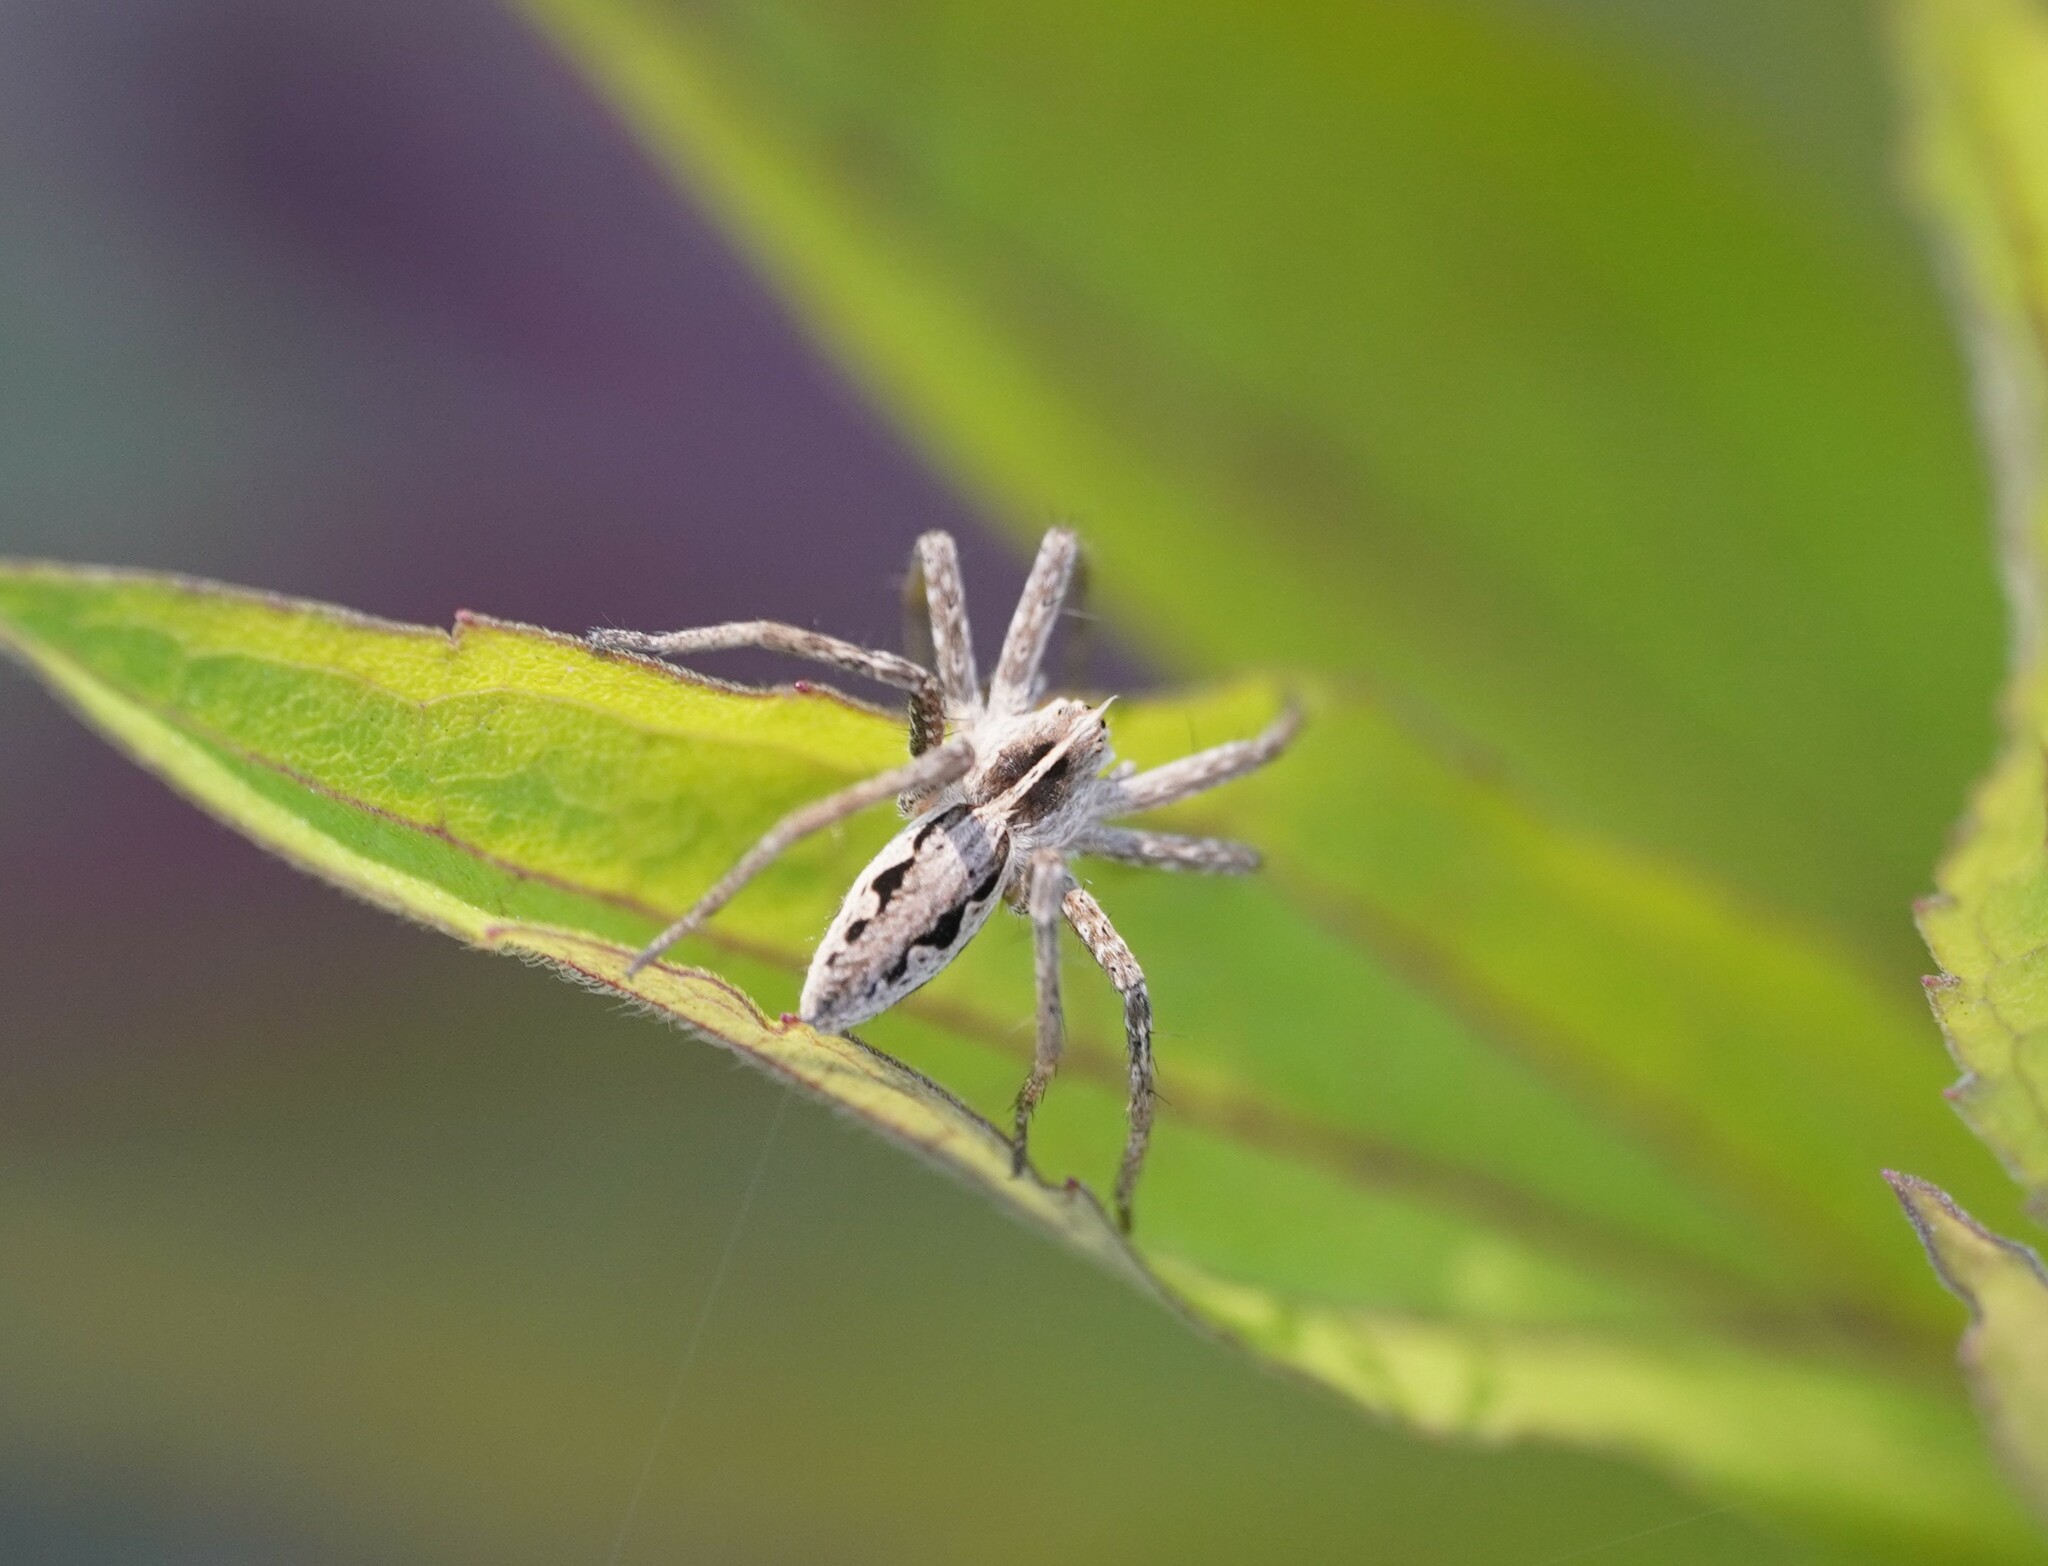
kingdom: Animalia
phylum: Arthropoda
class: Arachnida
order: Araneae
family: Pisauridae
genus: Pisaura
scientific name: Pisaura mirabilis
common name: Tent spider
